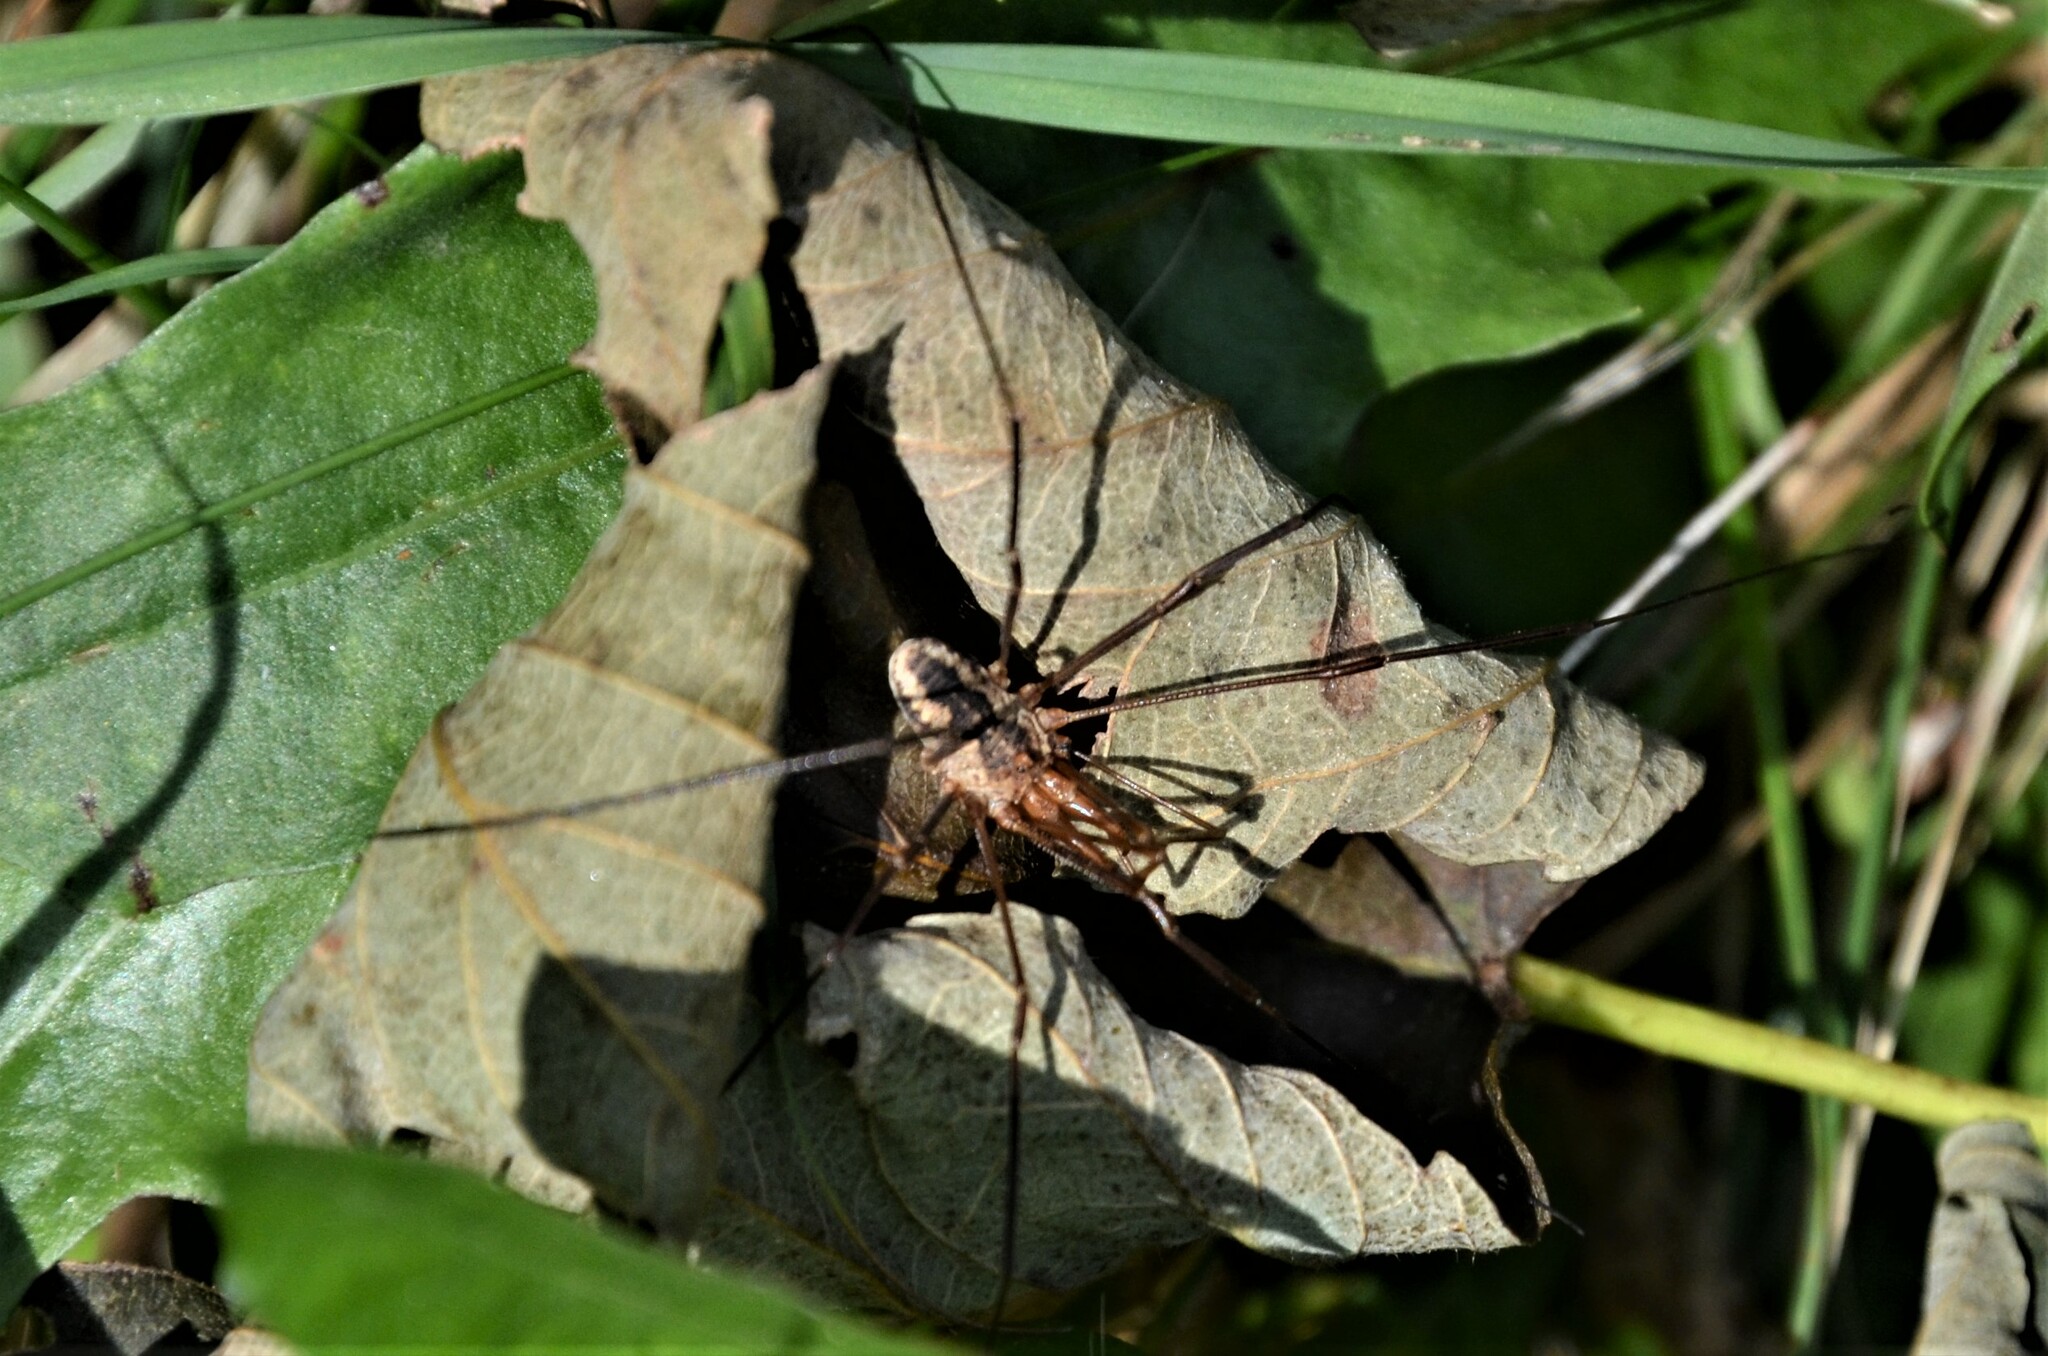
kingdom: Animalia
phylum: Arthropoda
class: Arachnida
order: Opiliones
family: Phalangiidae
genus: Phalangium
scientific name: Phalangium opilio
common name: Daddy longleg
